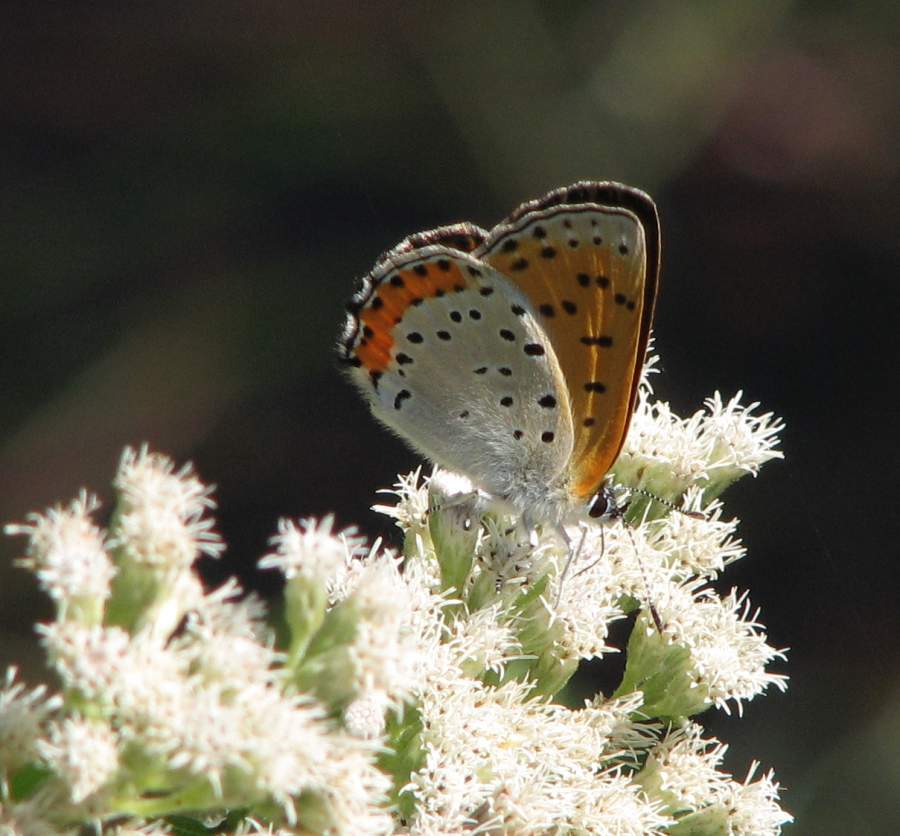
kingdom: Animalia
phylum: Arthropoda
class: Insecta
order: Lepidoptera
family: Lycaenidae
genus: Tharsalea
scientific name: Tharsalea hyllus
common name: Bronze copper
